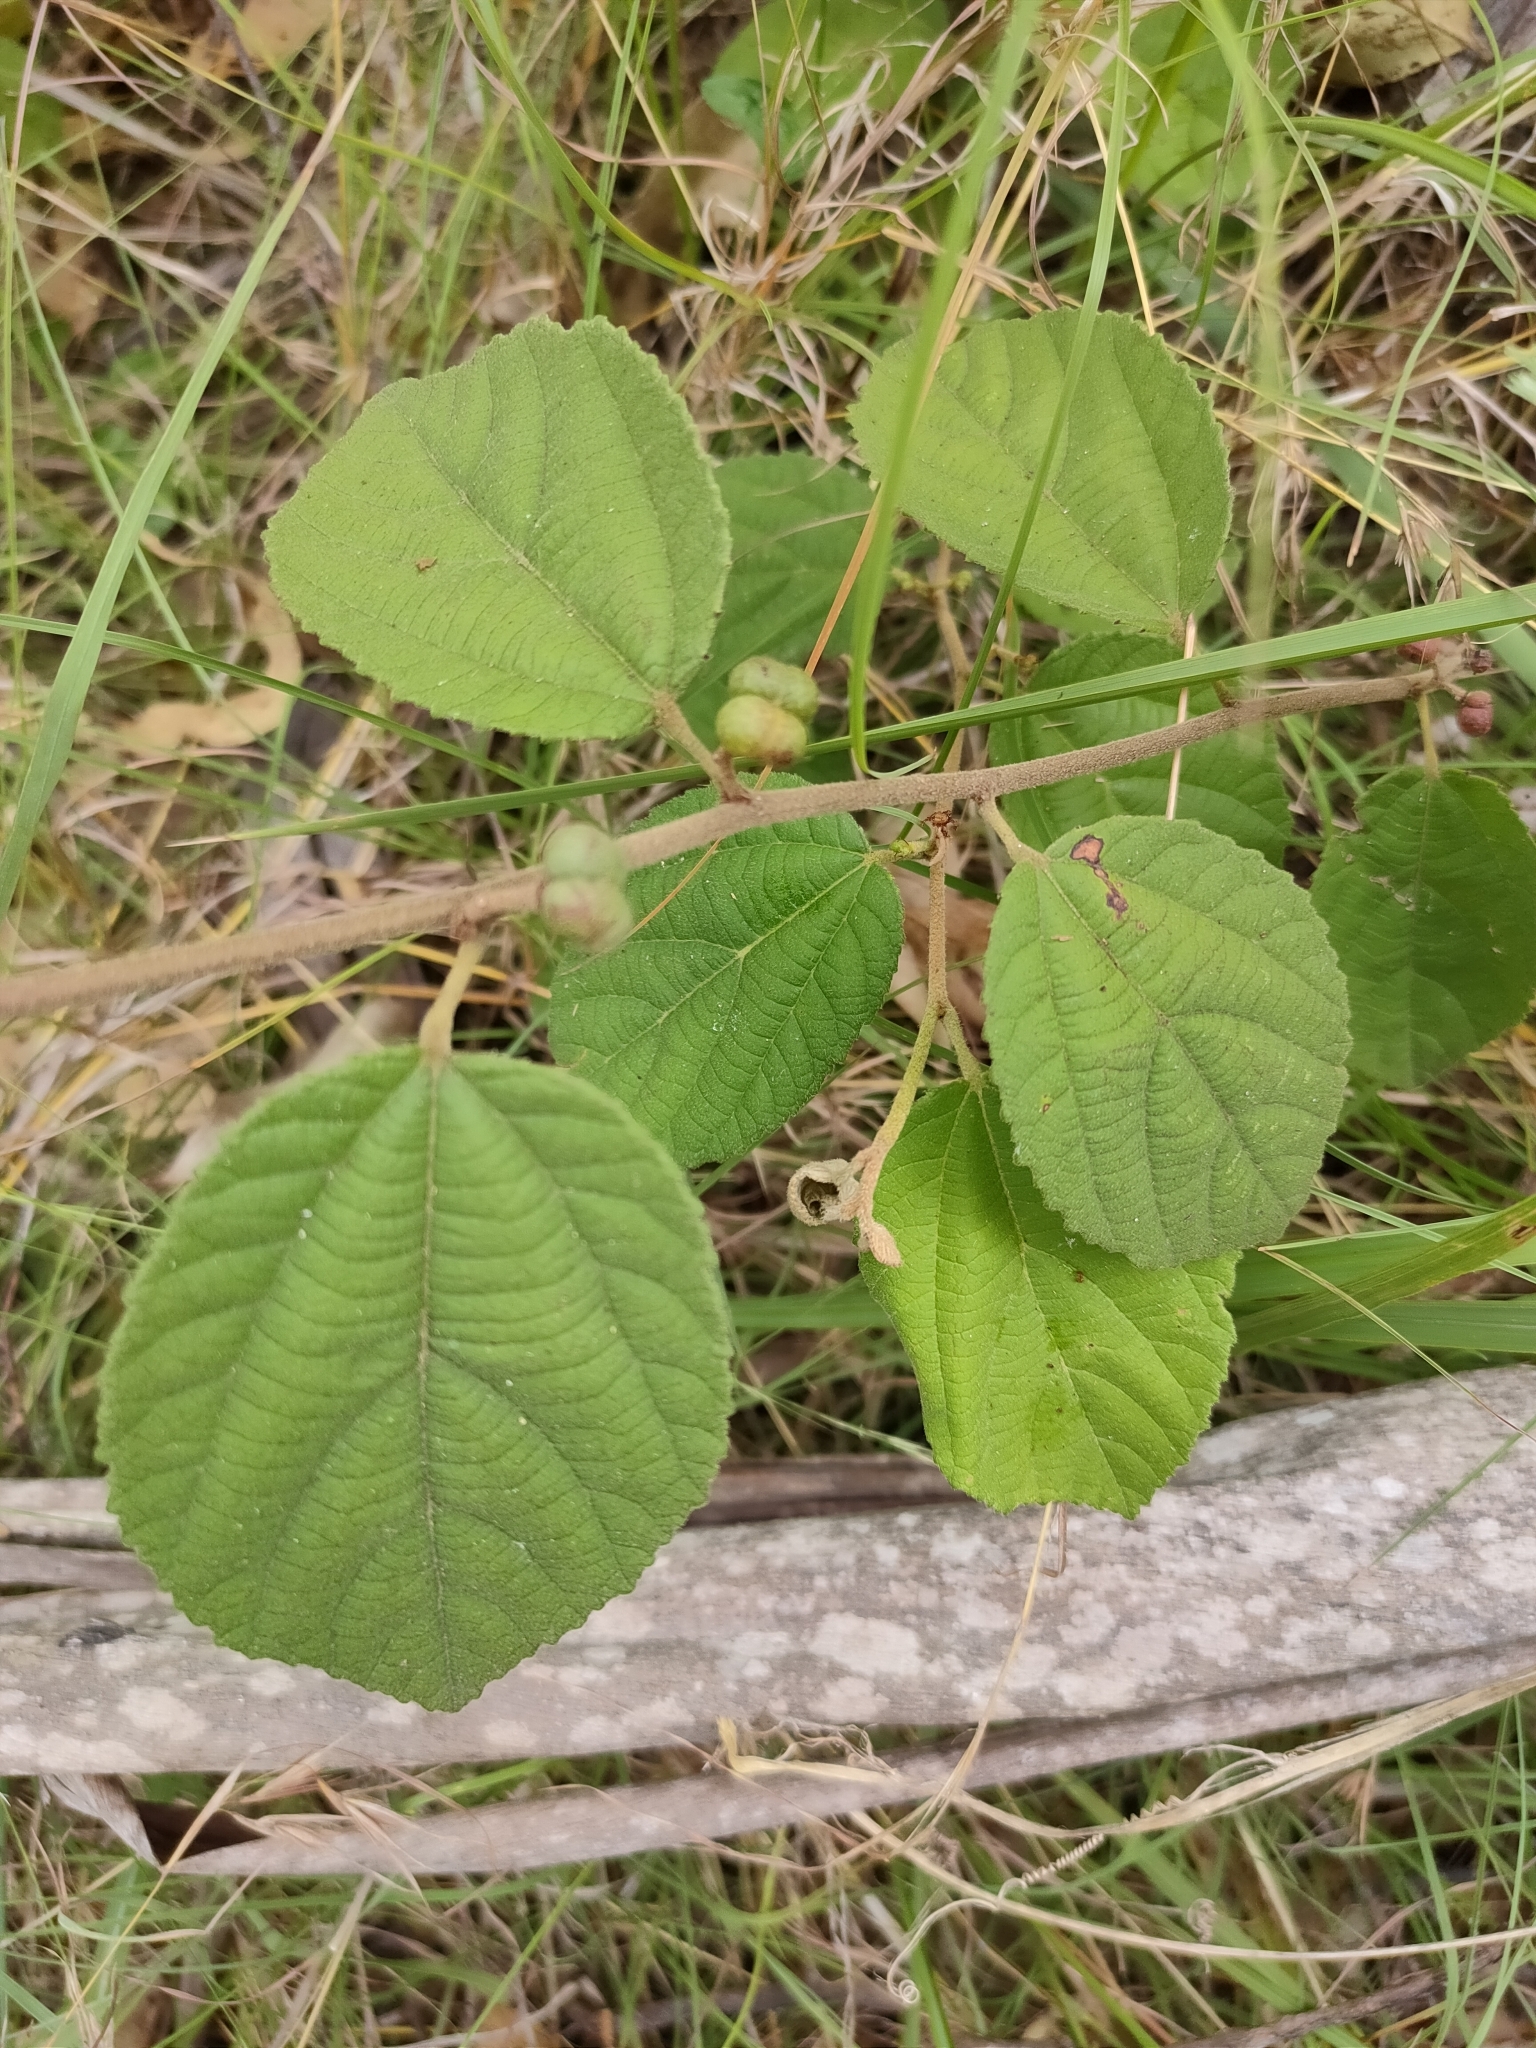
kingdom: Plantae
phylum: Tracheophyta
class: Magnoliopsida
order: Malvales
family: Malvaceae
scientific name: Malvaceae
